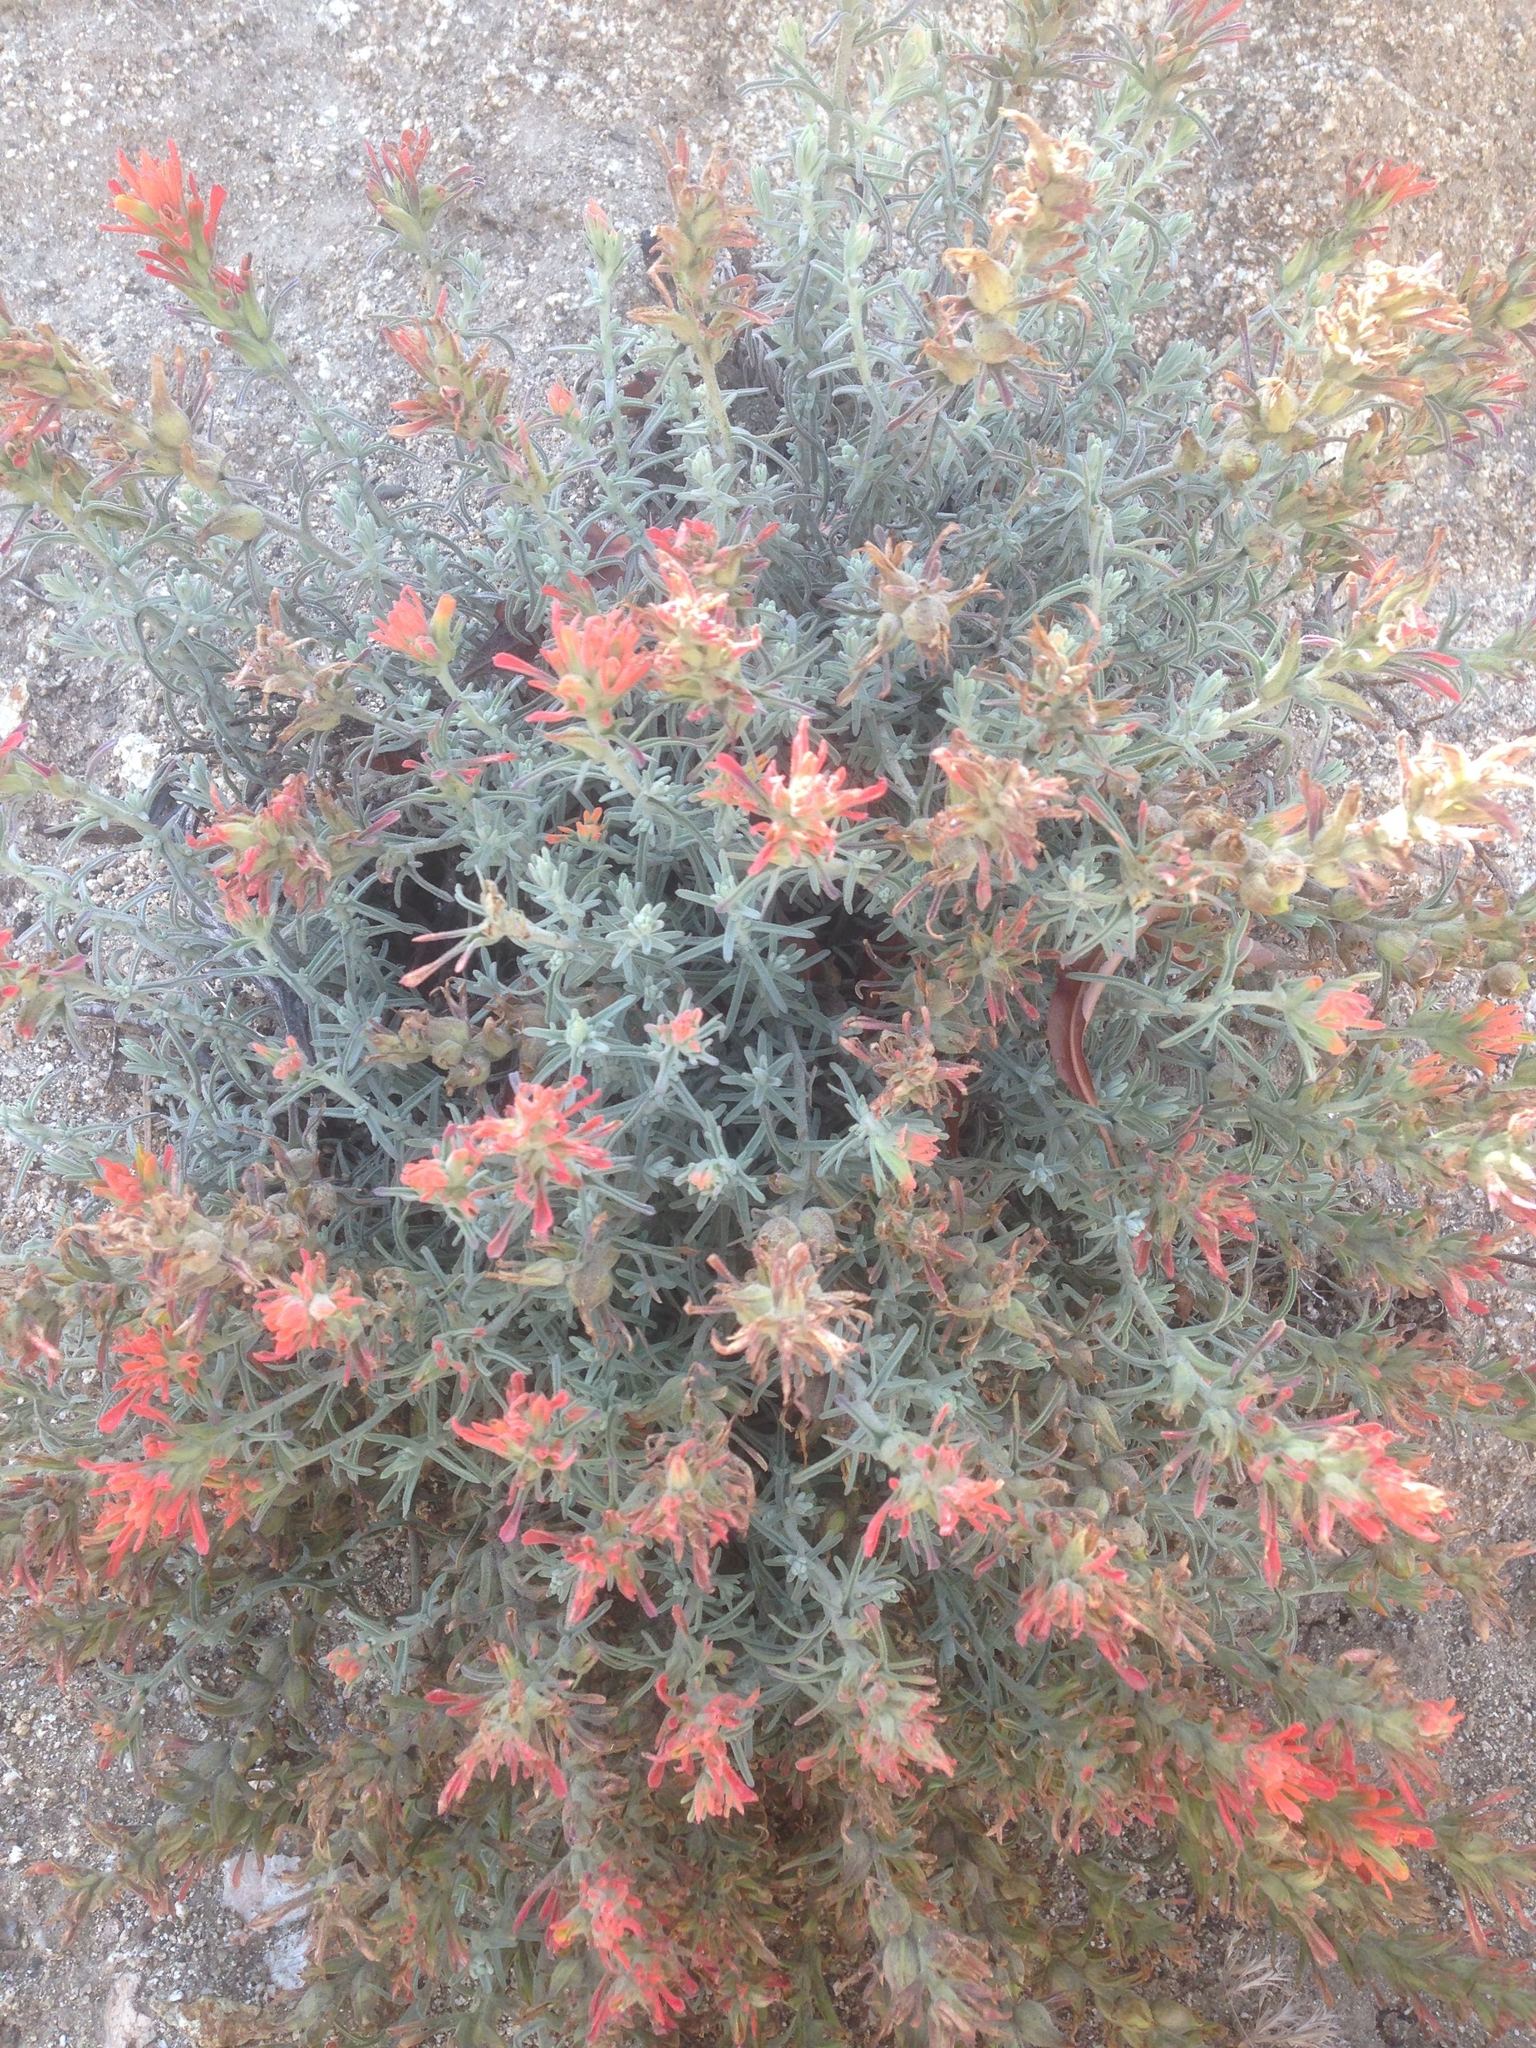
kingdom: Plantae
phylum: Tracheophyta
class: Magnoliopsida
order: Lamiales
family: Orobanchaceae
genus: Castilleja
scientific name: Castilleja foliolosa
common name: Woolly indian paintbrush
